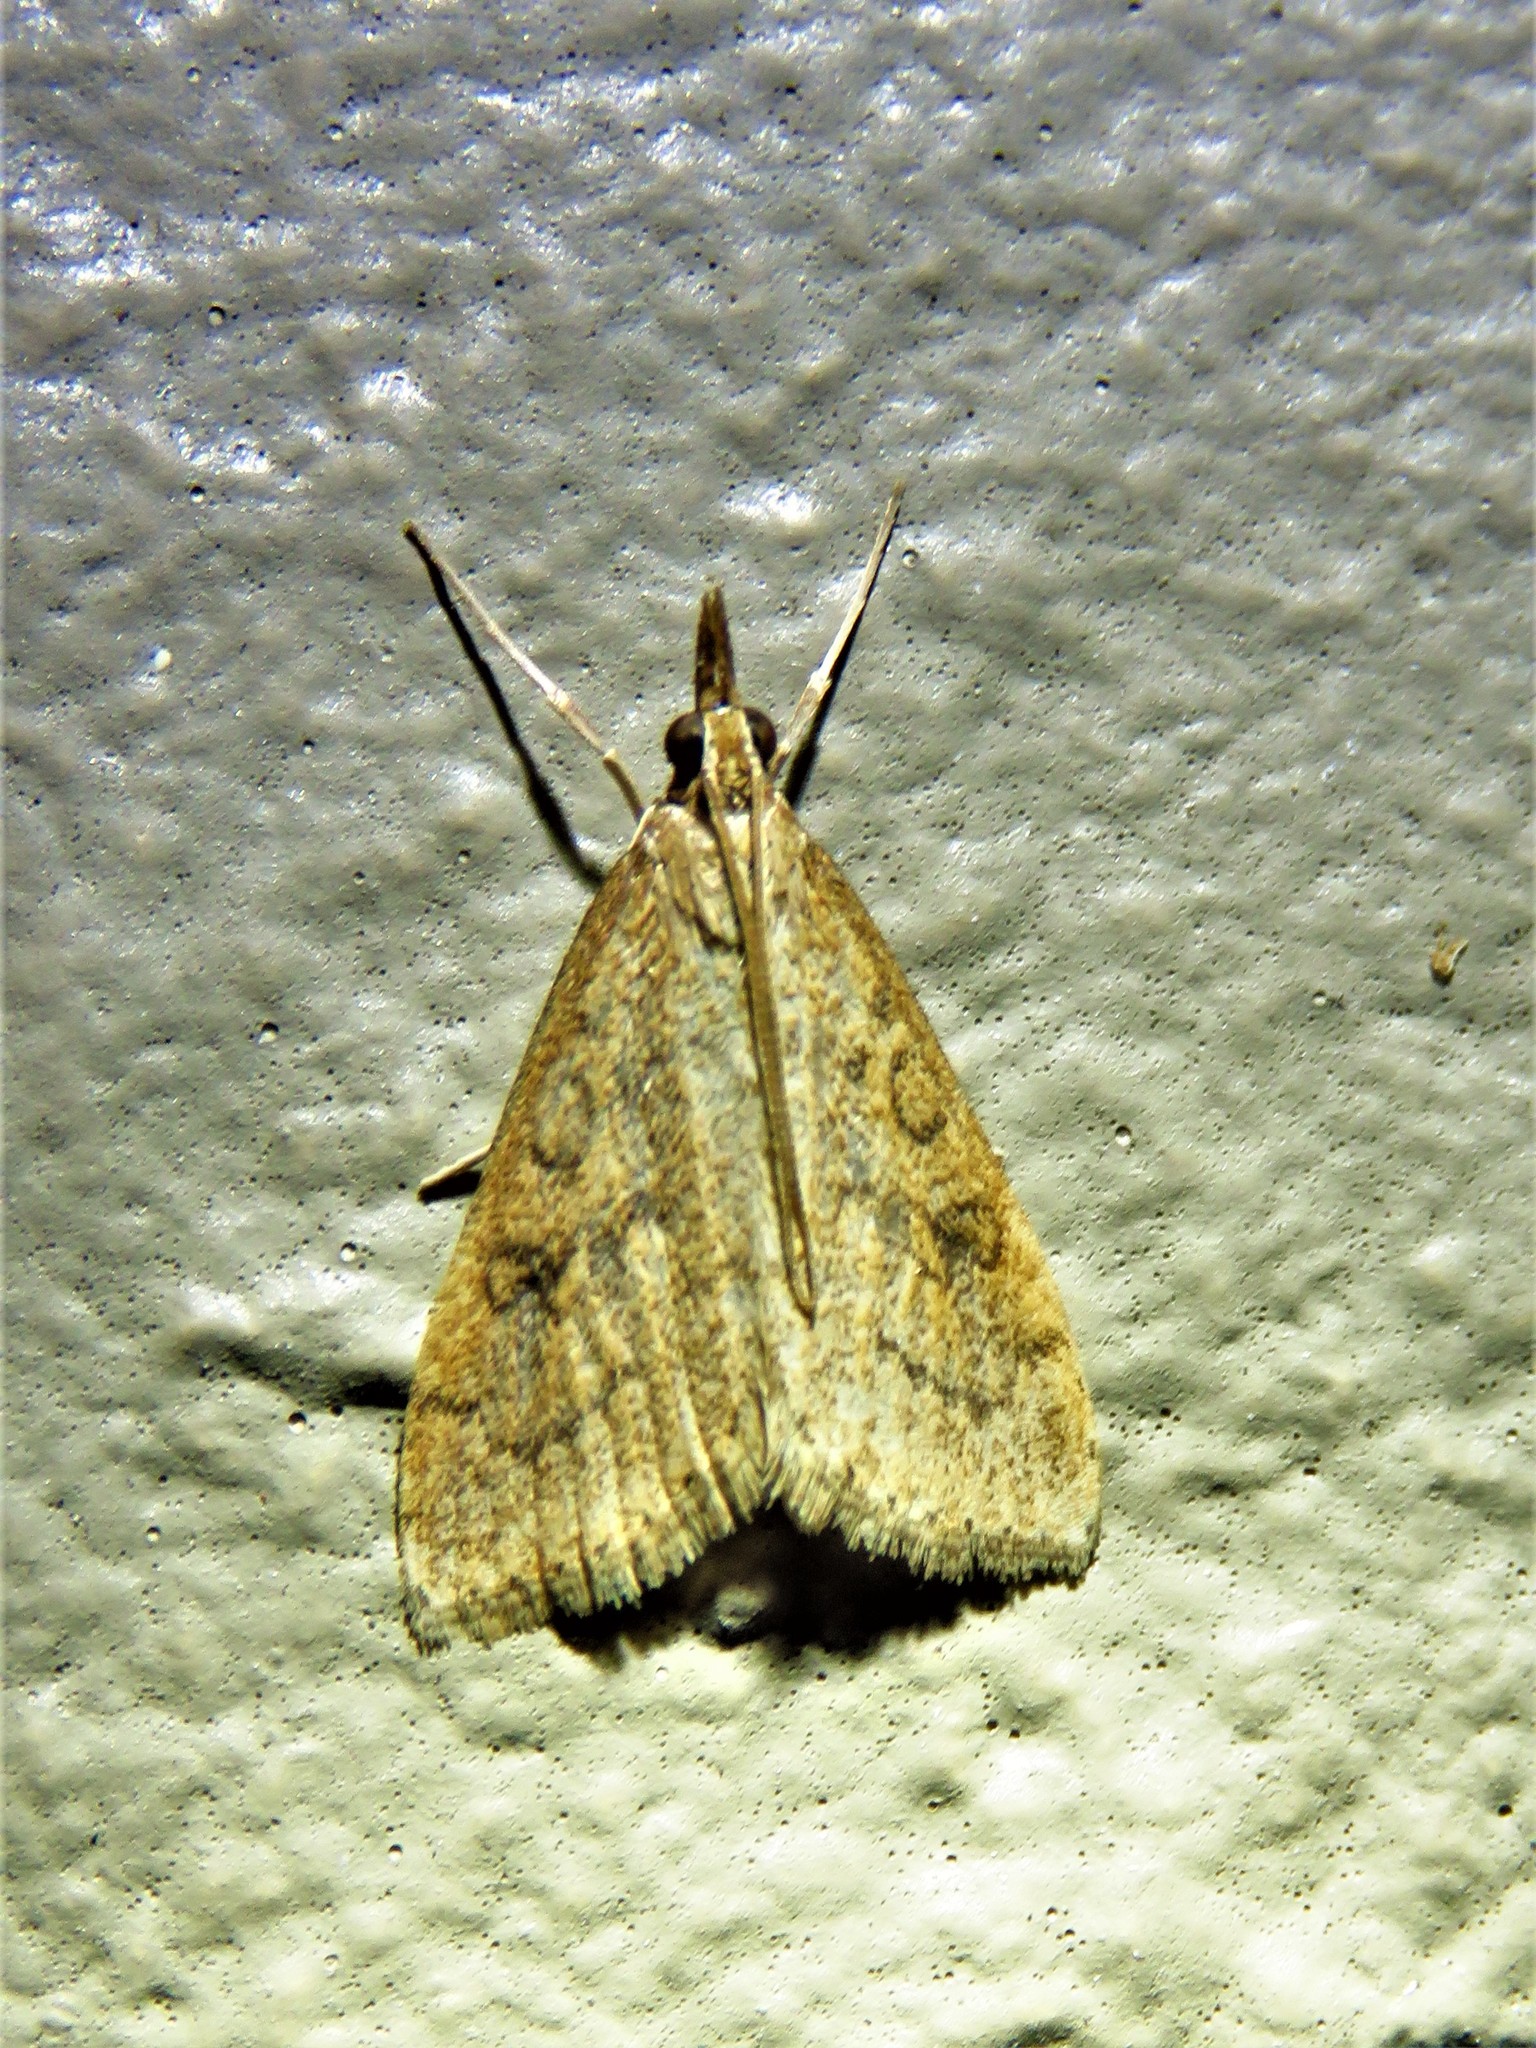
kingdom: Animalia
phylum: Arthropoda
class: Insecta
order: Lepidoptera
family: Crambidae
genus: Udea
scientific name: Udea rubigalis
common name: Celery leaftier moth
